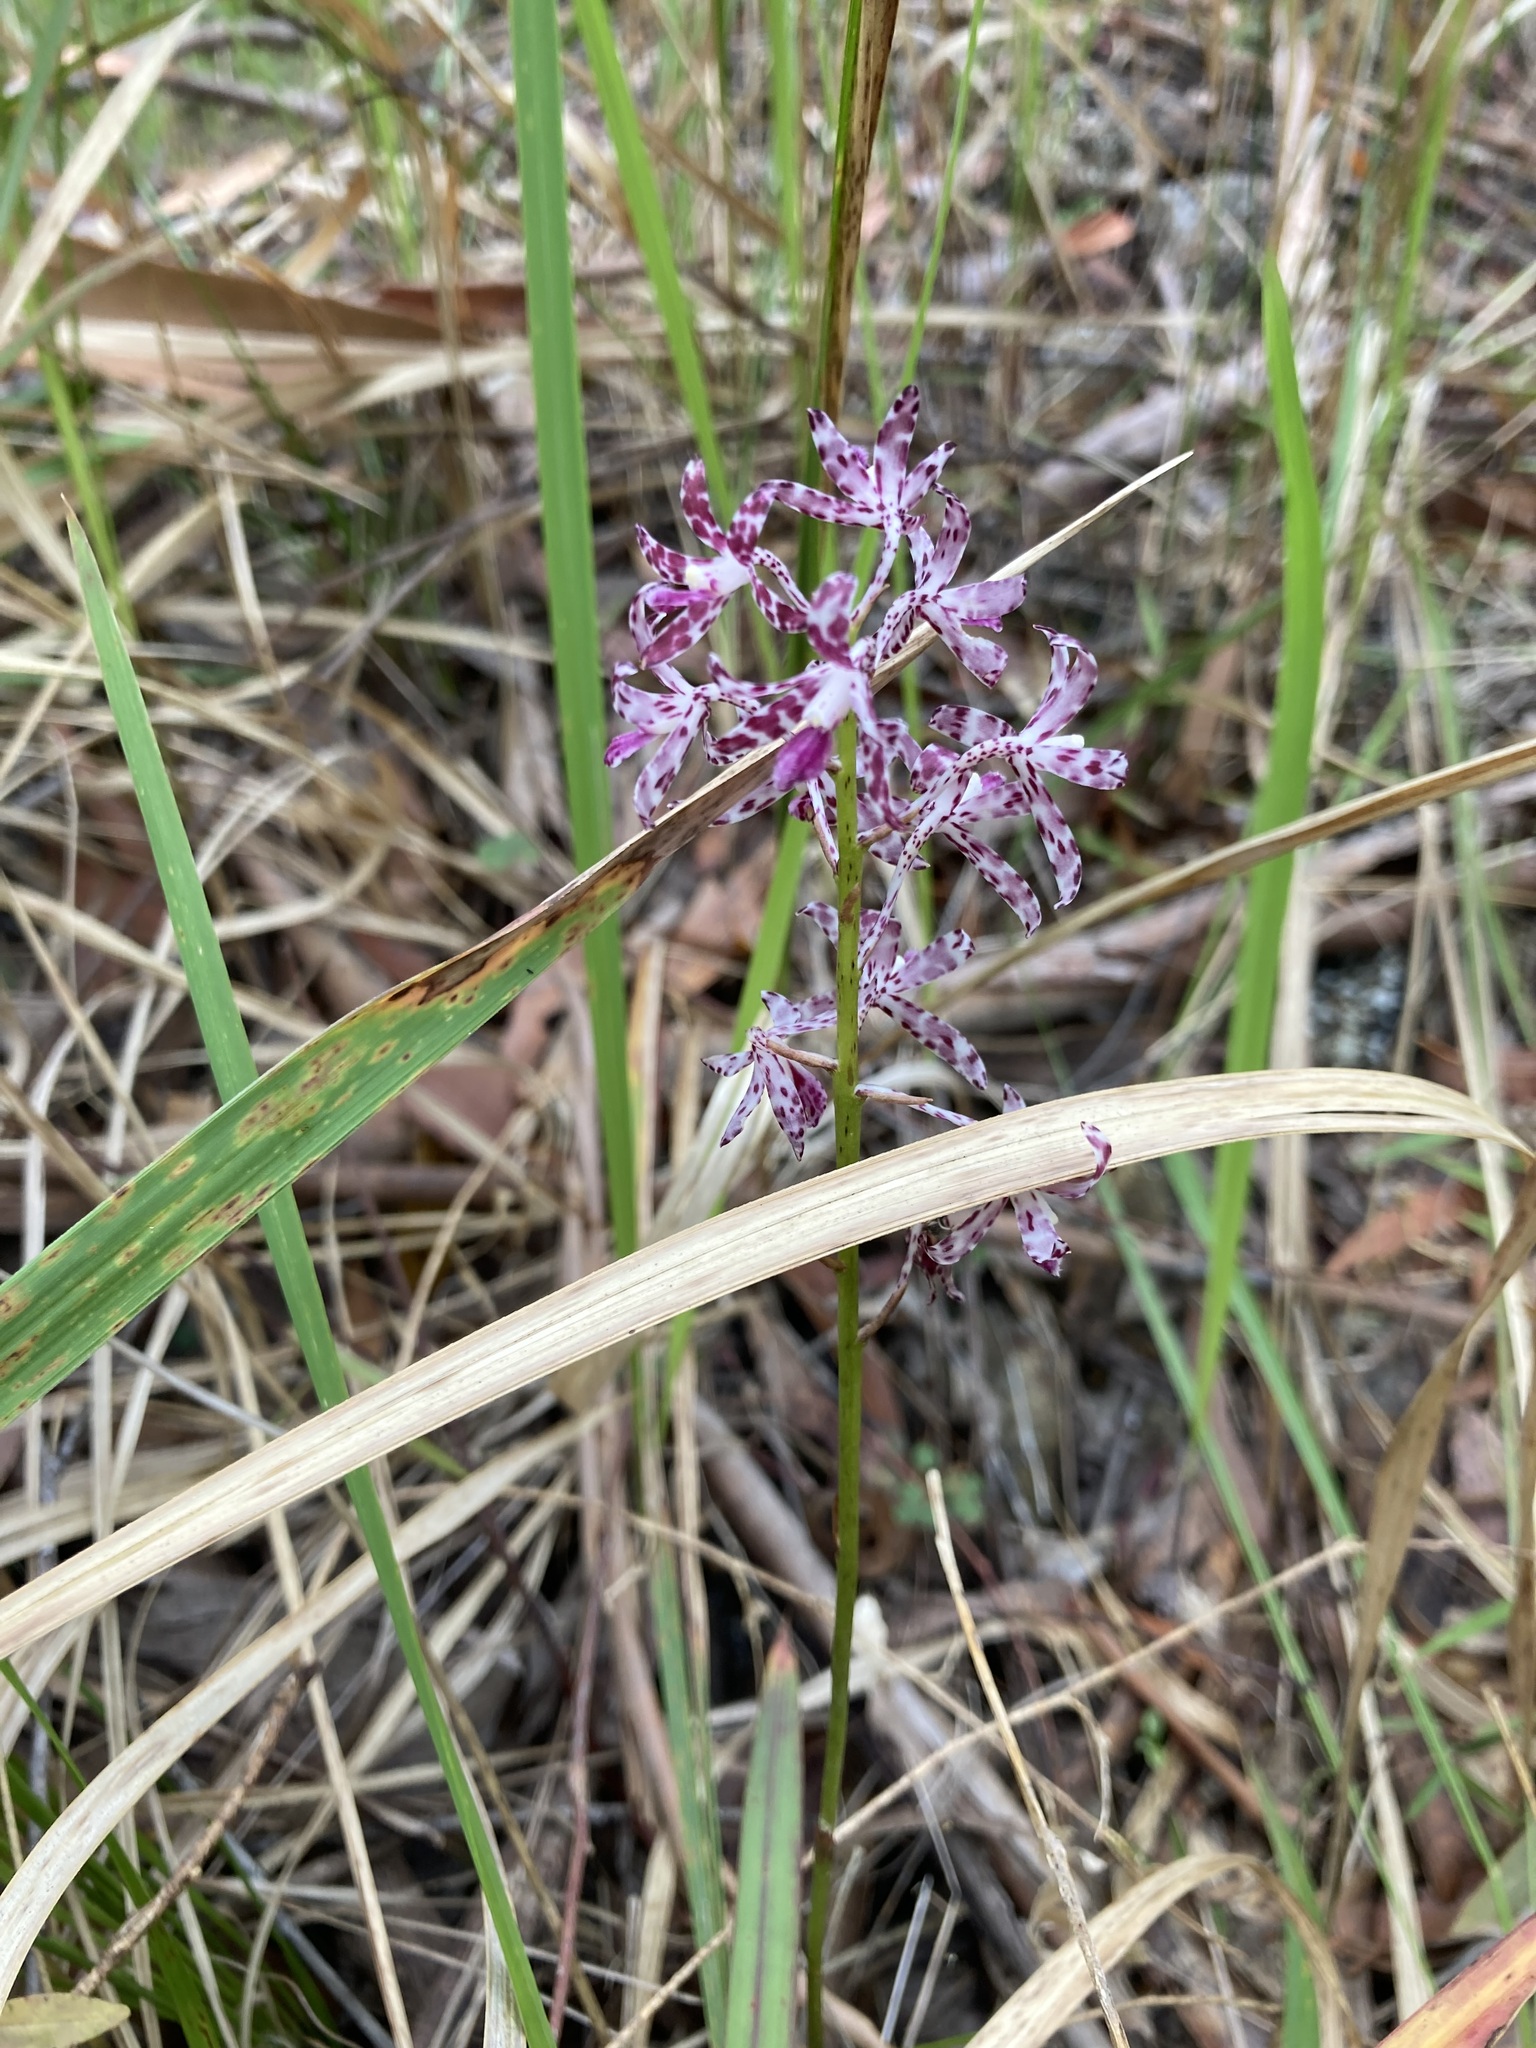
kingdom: Plantae
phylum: Tracheophyta
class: Liliopsida
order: Asparagales
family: Orchidaceae
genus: Dipodium
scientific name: Dipodium variegatum
